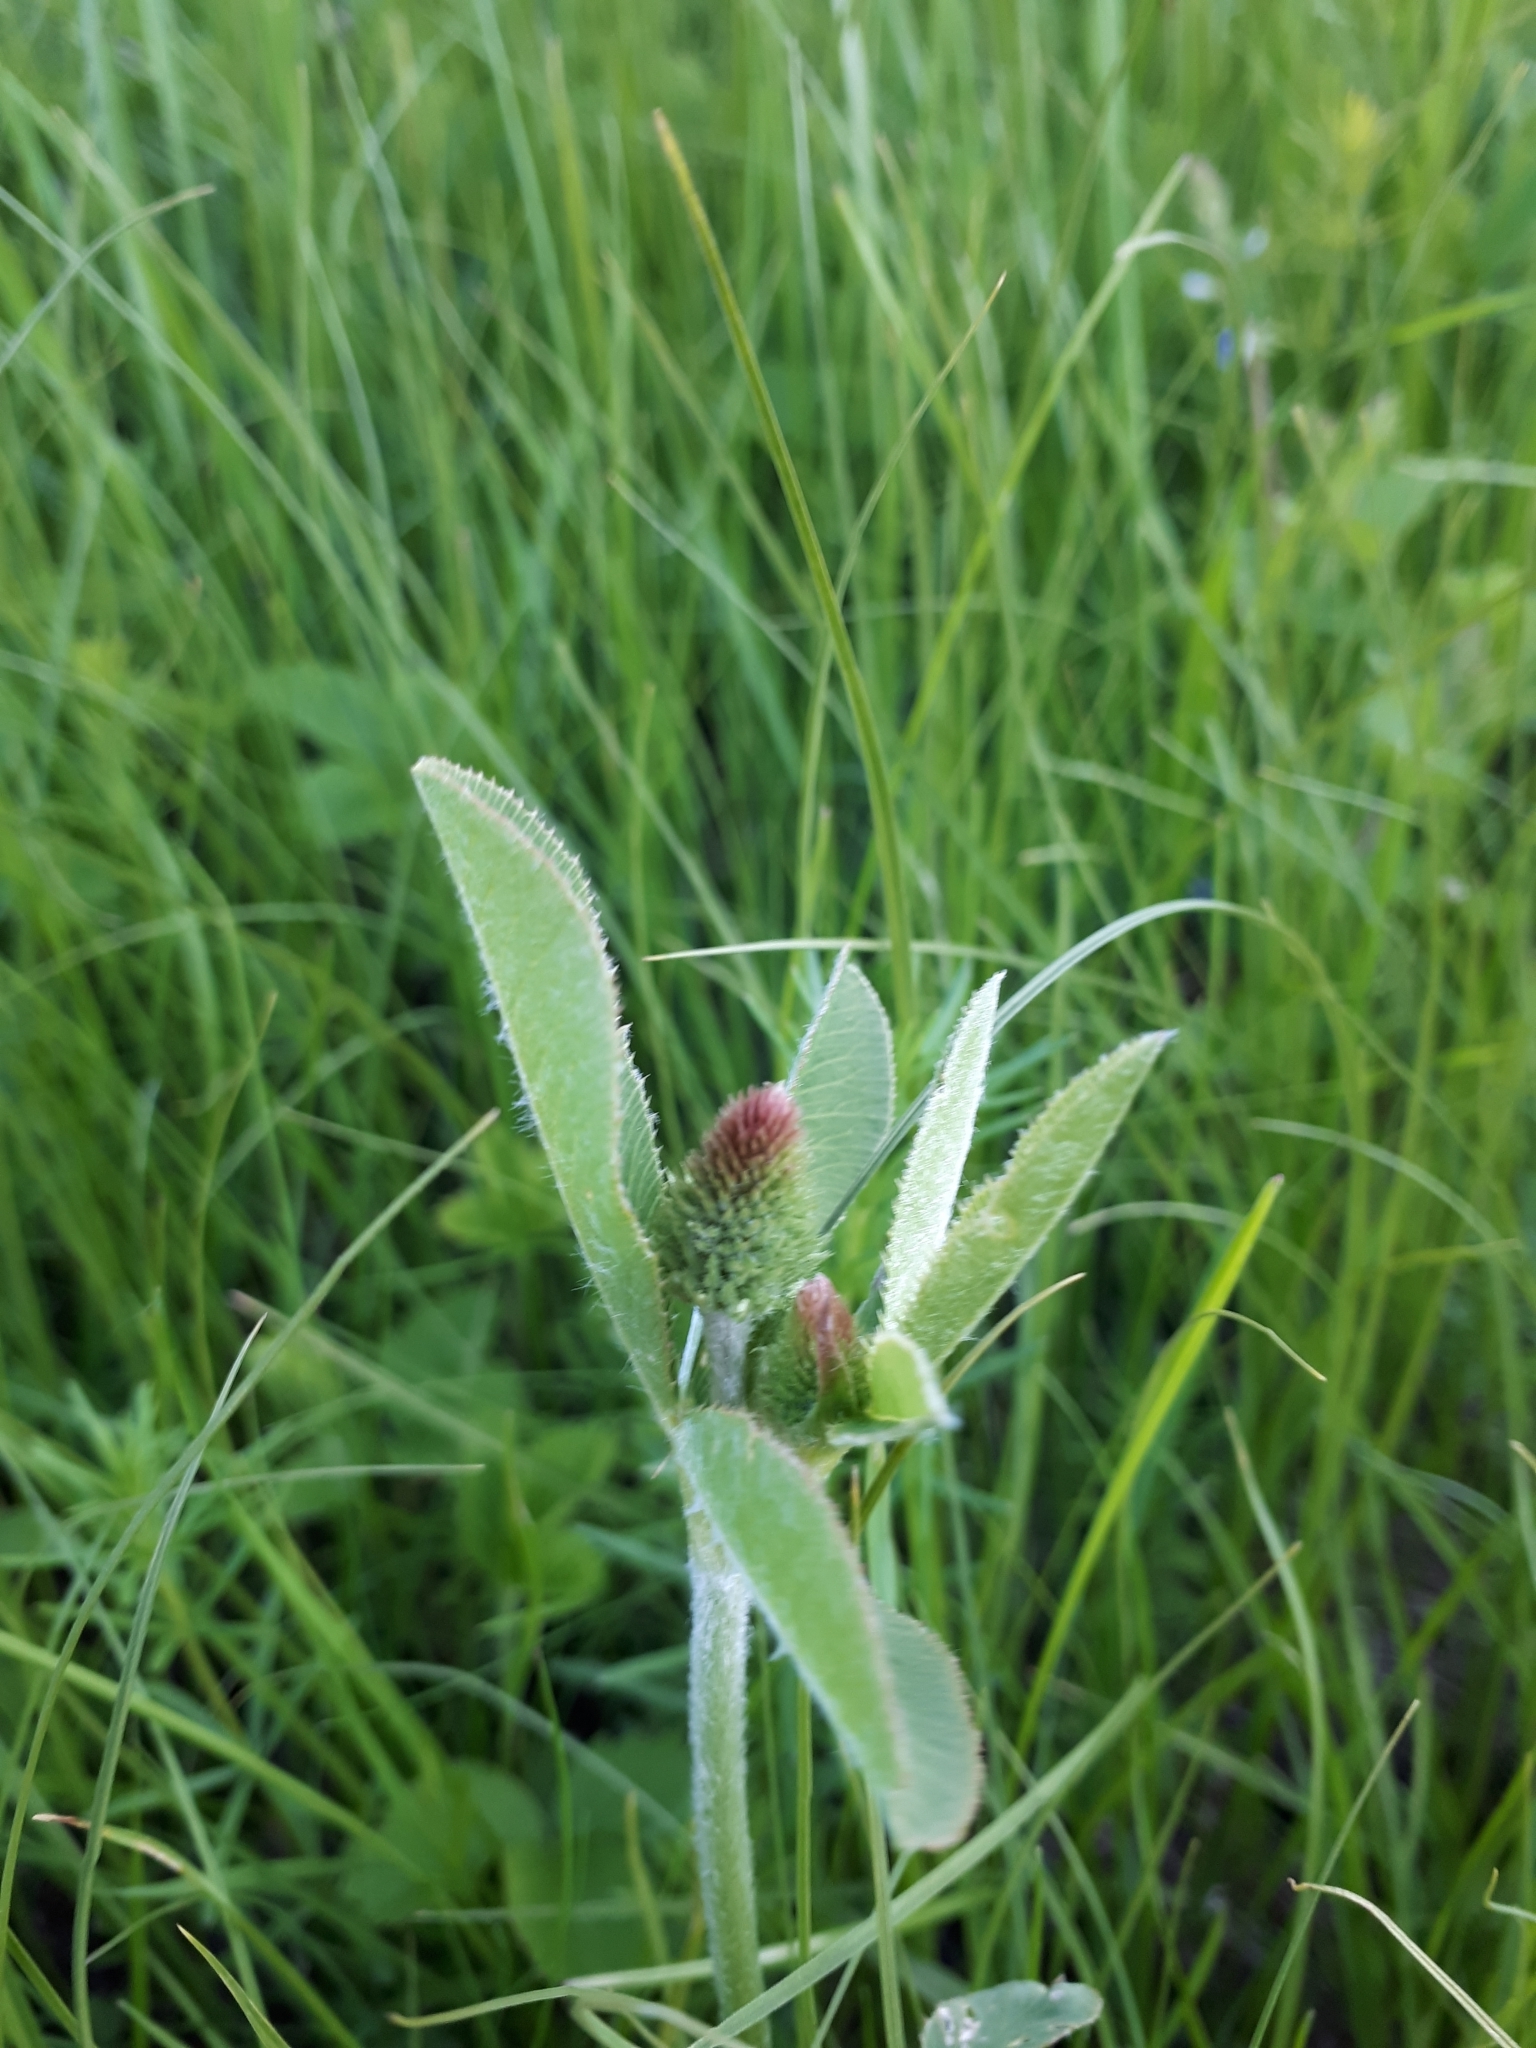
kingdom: Plantae
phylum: Tracheophyta
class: Magnoliopsida
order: Fabales
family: Fabaceae
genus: Trifolium
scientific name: Trifolium montanum
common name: Mountain clover
